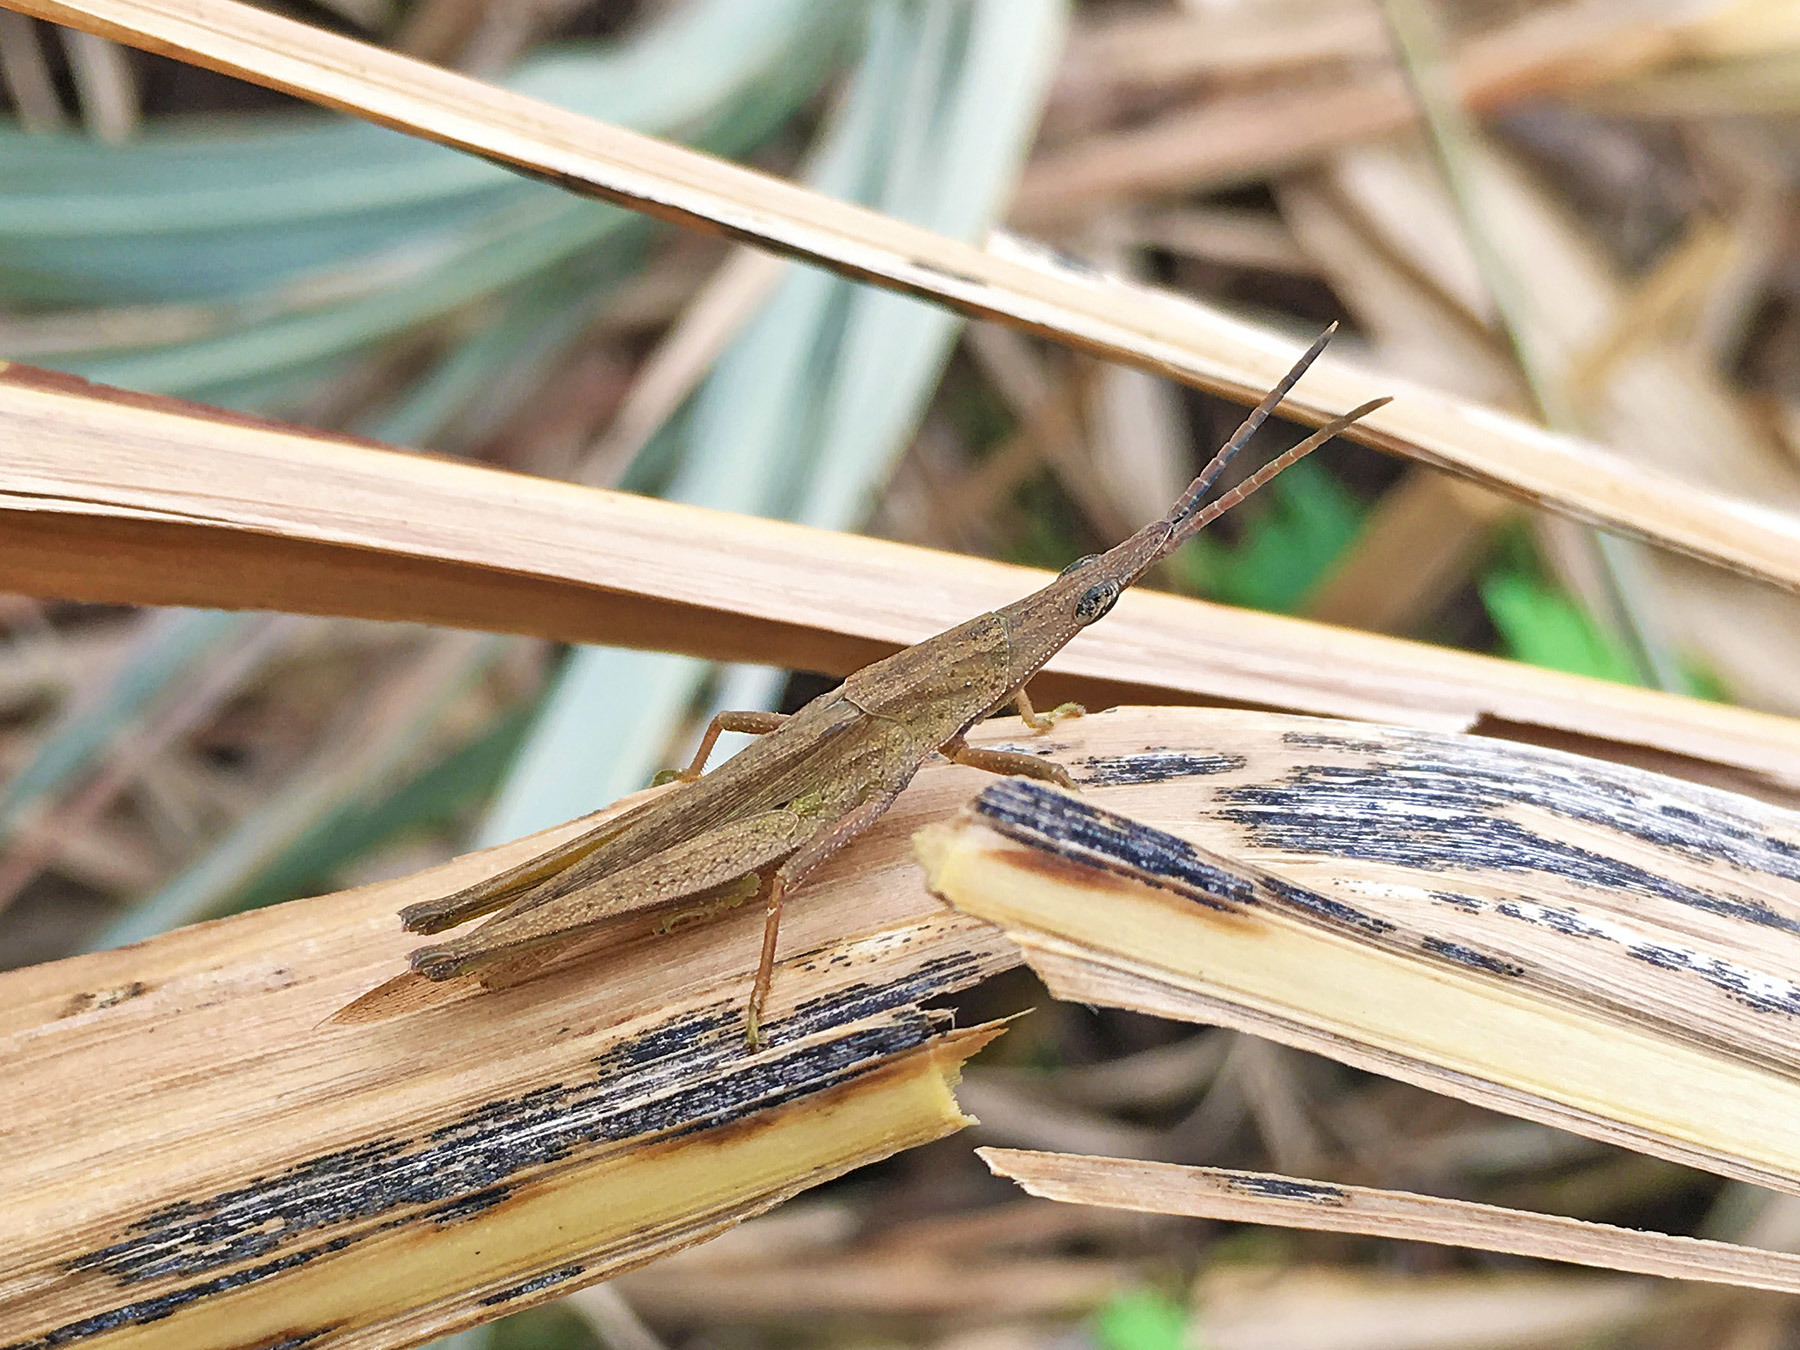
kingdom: Animalia
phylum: Arthropoda
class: Insecta
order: Orthoptera
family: Pyrgomorphidae
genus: Atractomorpha
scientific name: Atractomorpha lata
